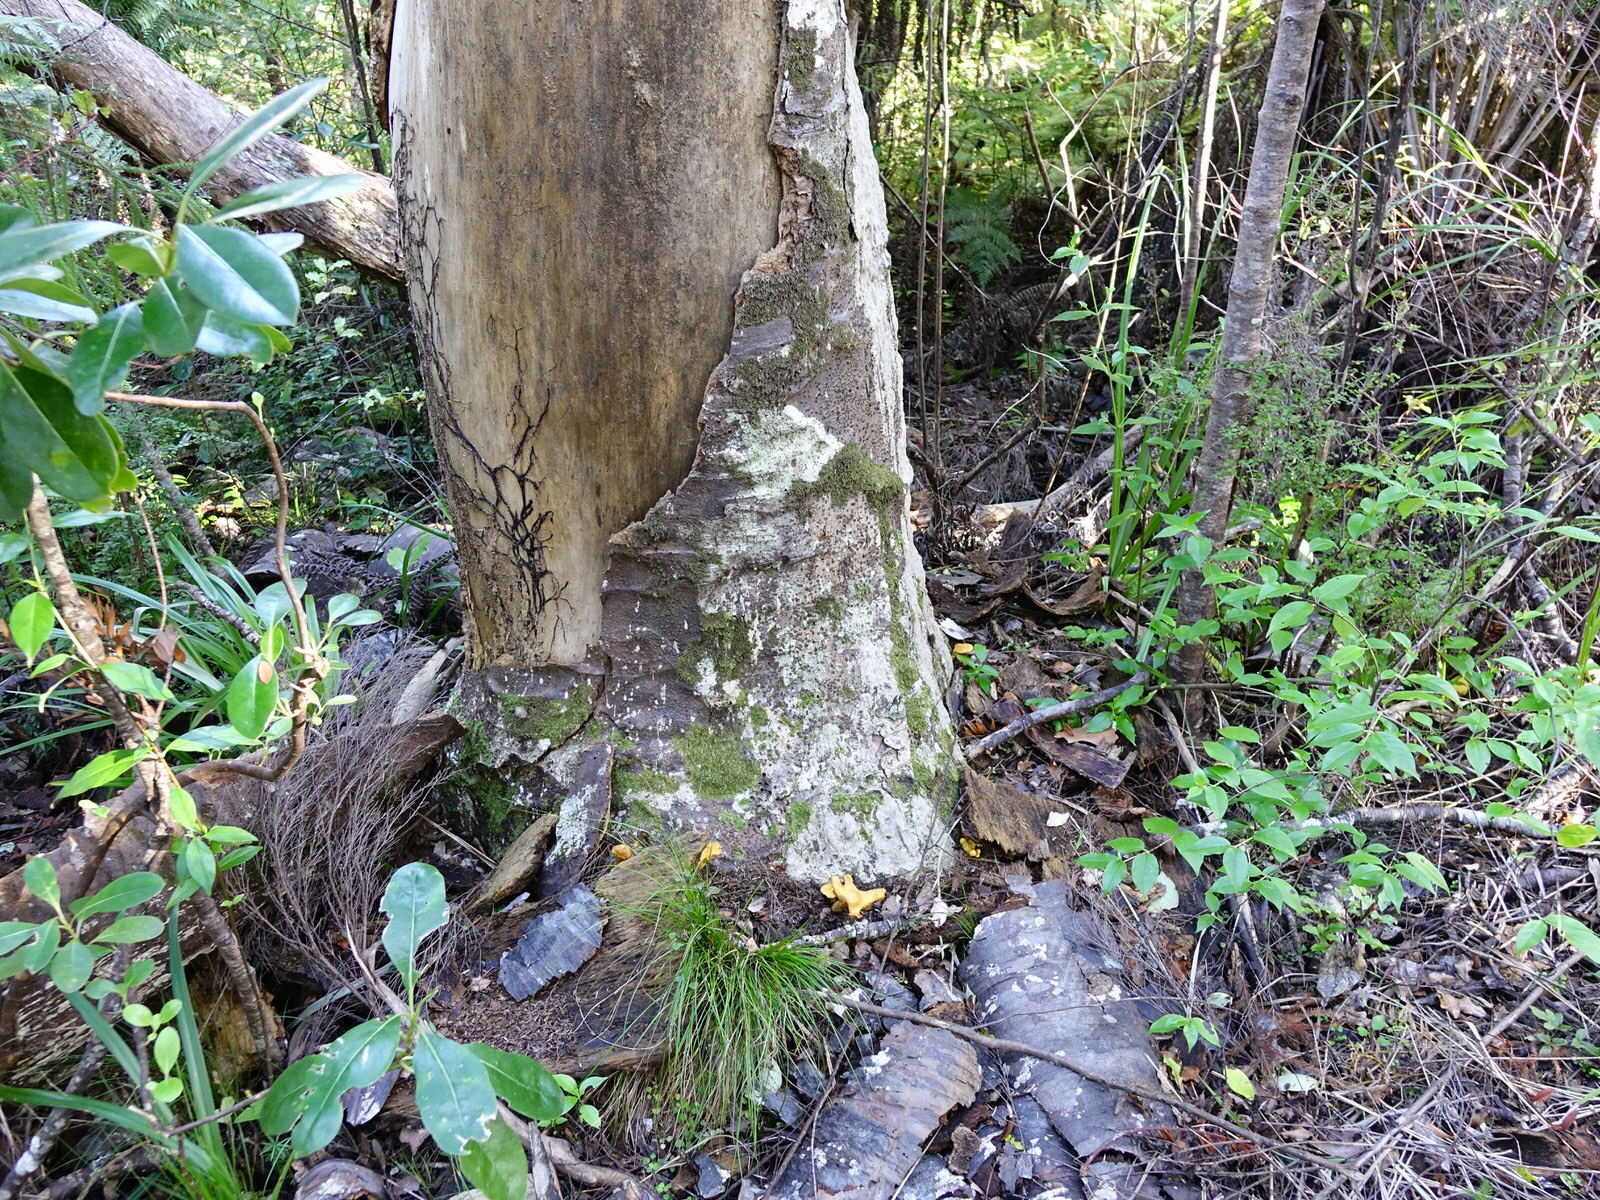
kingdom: Plantae
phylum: Tracheophyta
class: Pinopsida
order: Pinales
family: Araucariaceae
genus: Agathis
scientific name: Agathis australis
